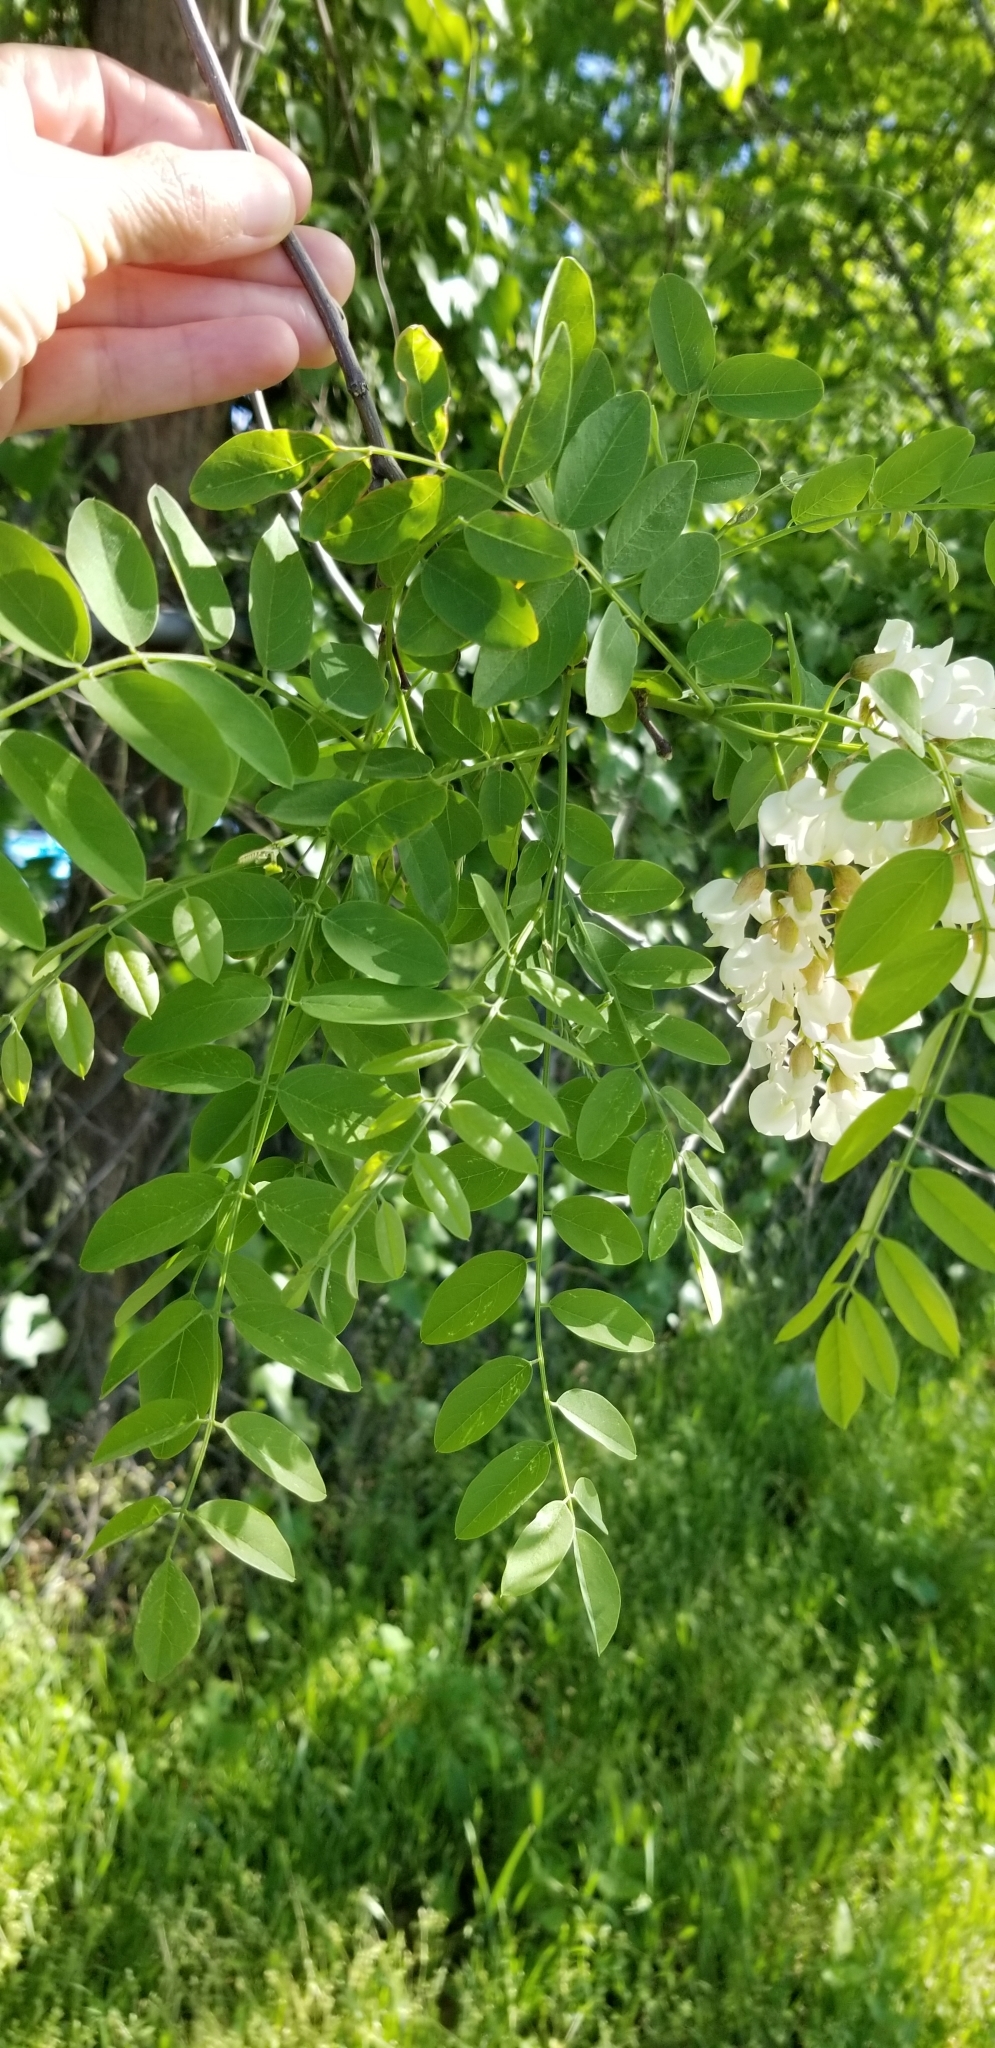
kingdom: Plantae
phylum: Tracheophyta
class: Magnoliopsida
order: Fabales
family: Fabaceae
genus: Robinia
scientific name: Robinia pseudoacacia
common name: Black locust
